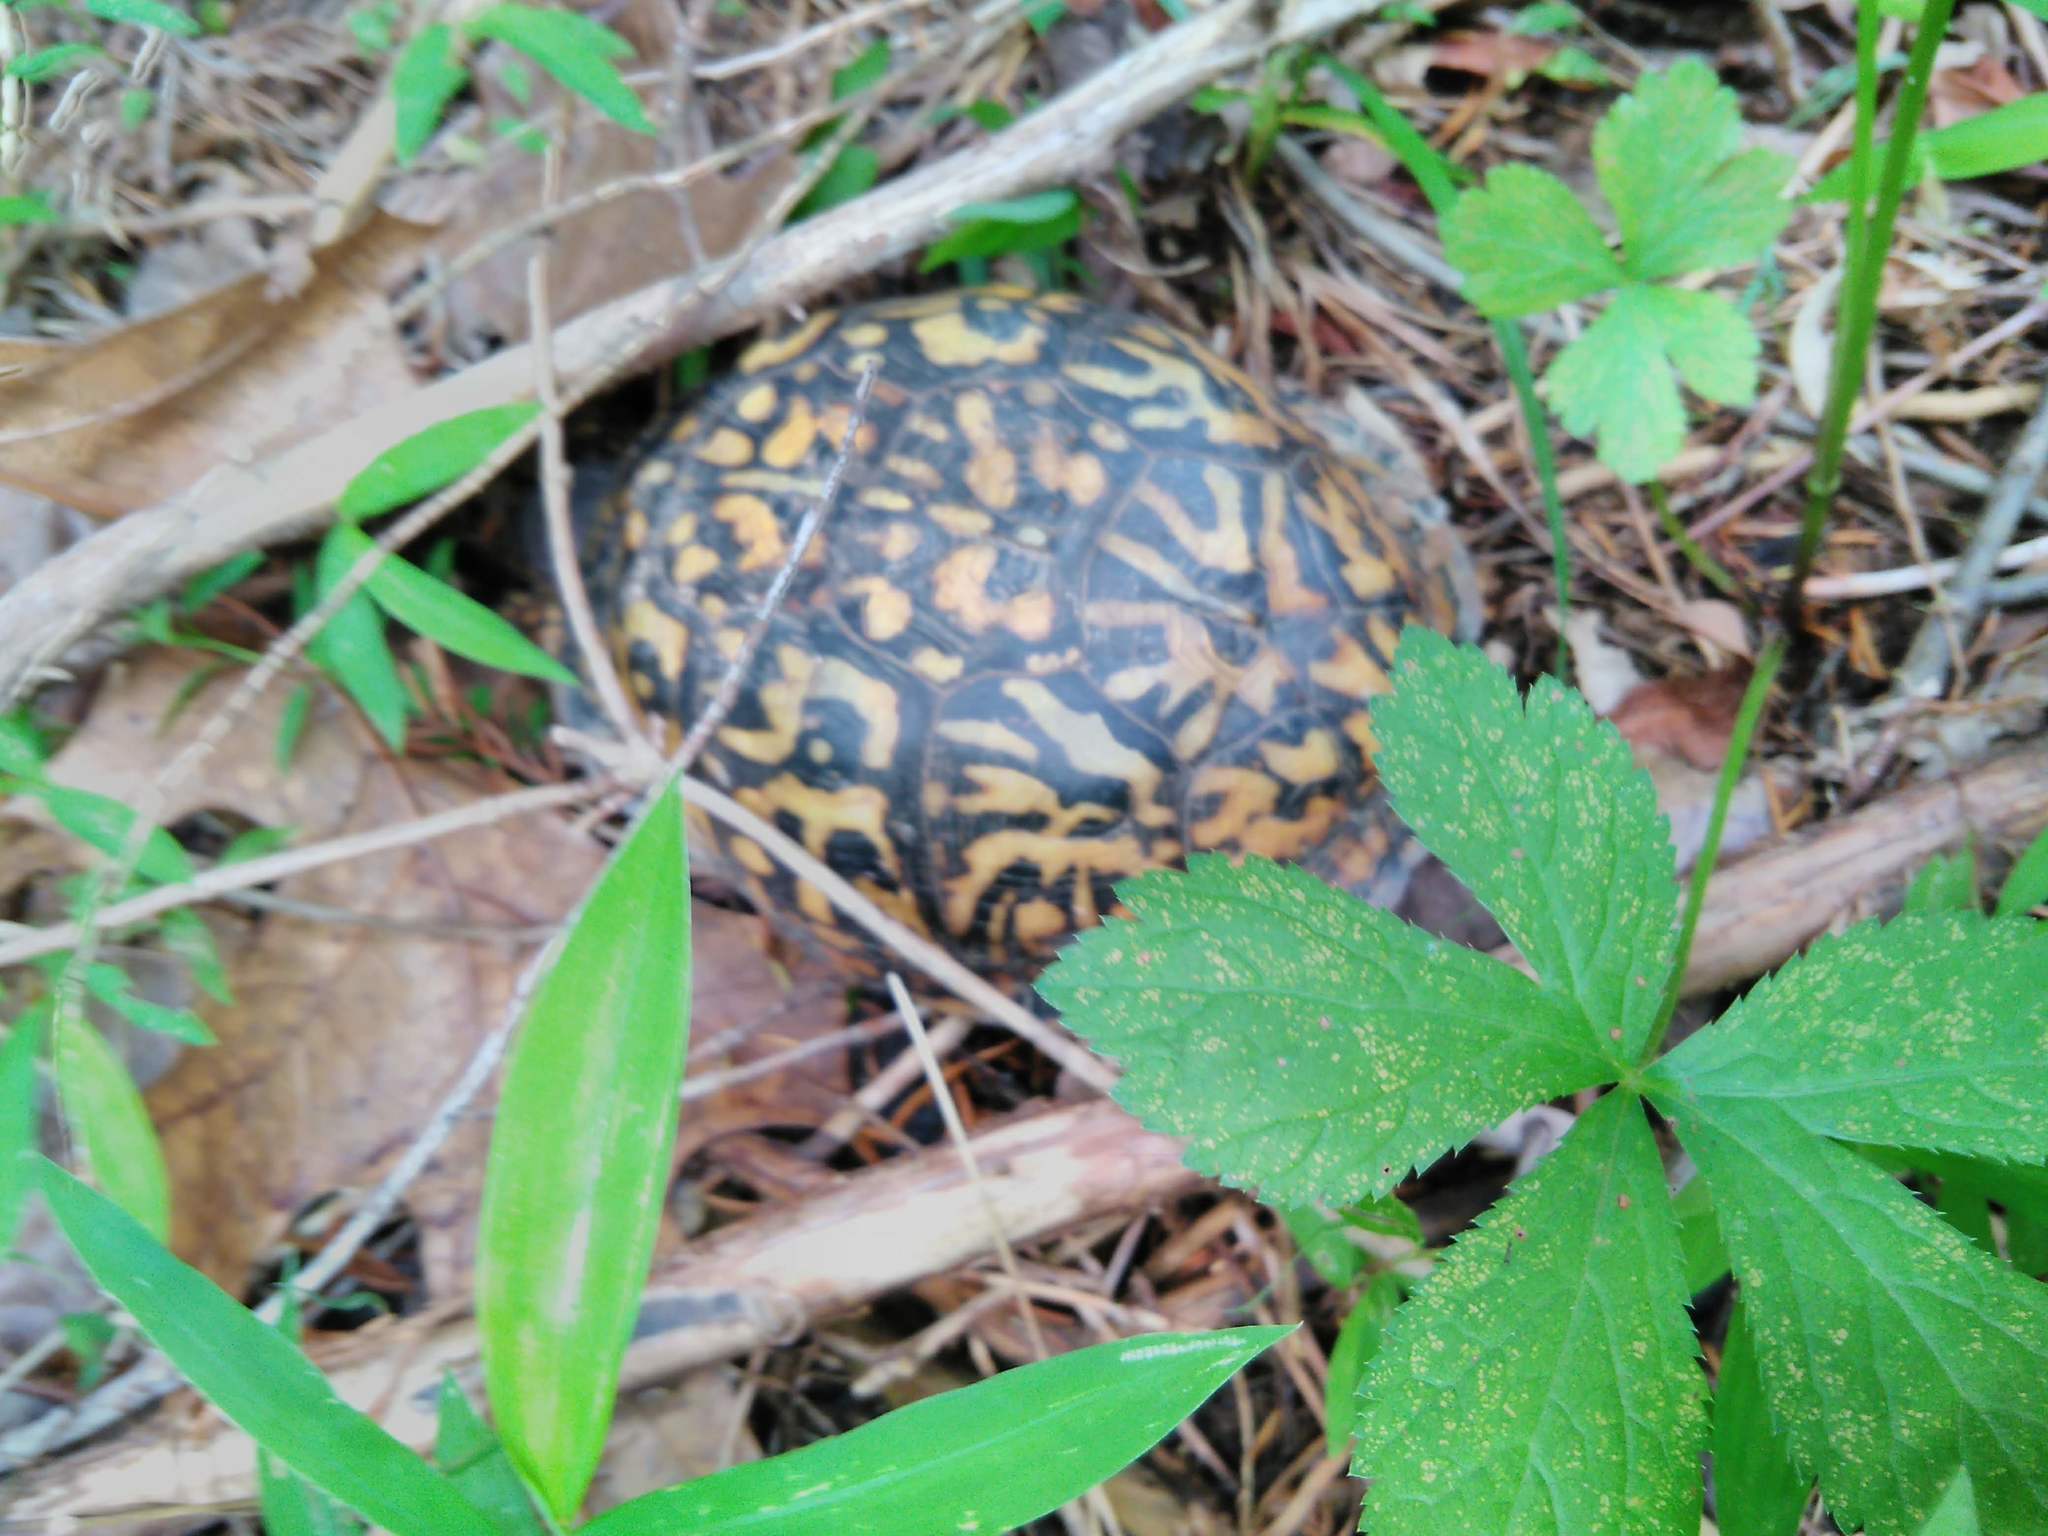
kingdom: Animalia
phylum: Chordata
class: Testudines
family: Emydidae
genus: Terrapene
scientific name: Terrapene carolina
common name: Common box turtle
